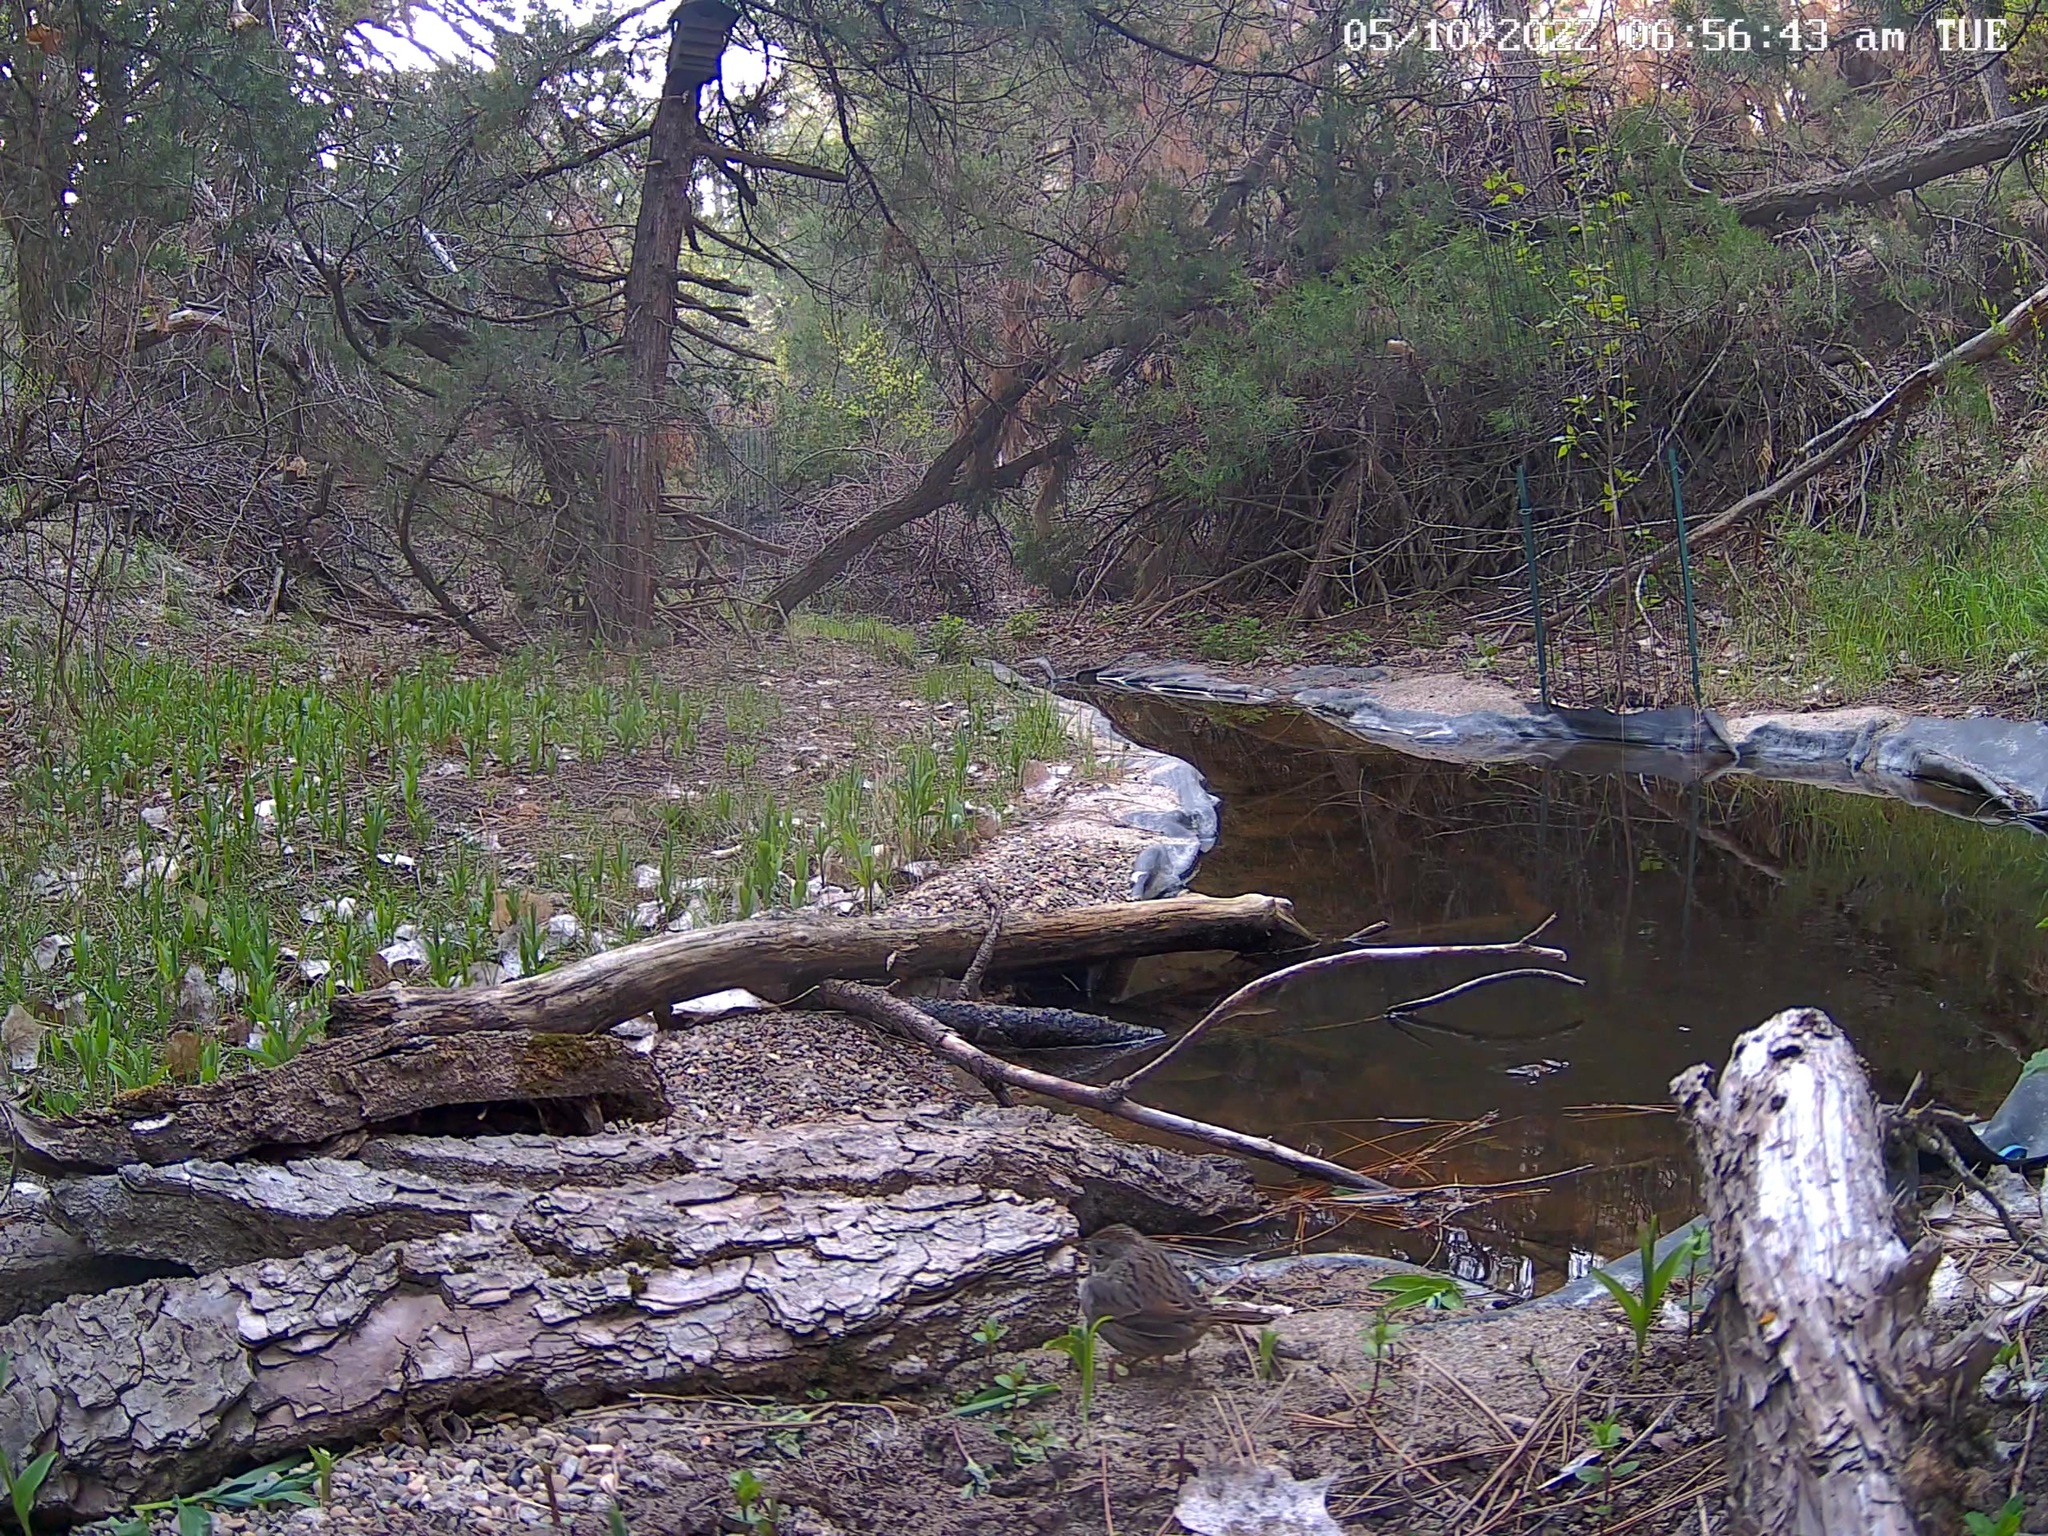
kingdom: Animalia
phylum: Chordata
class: Aves
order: Passeriformes
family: Passerellidae
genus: Melospiza
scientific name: Melospiza lincolnii
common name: Lincoln's sparrow
